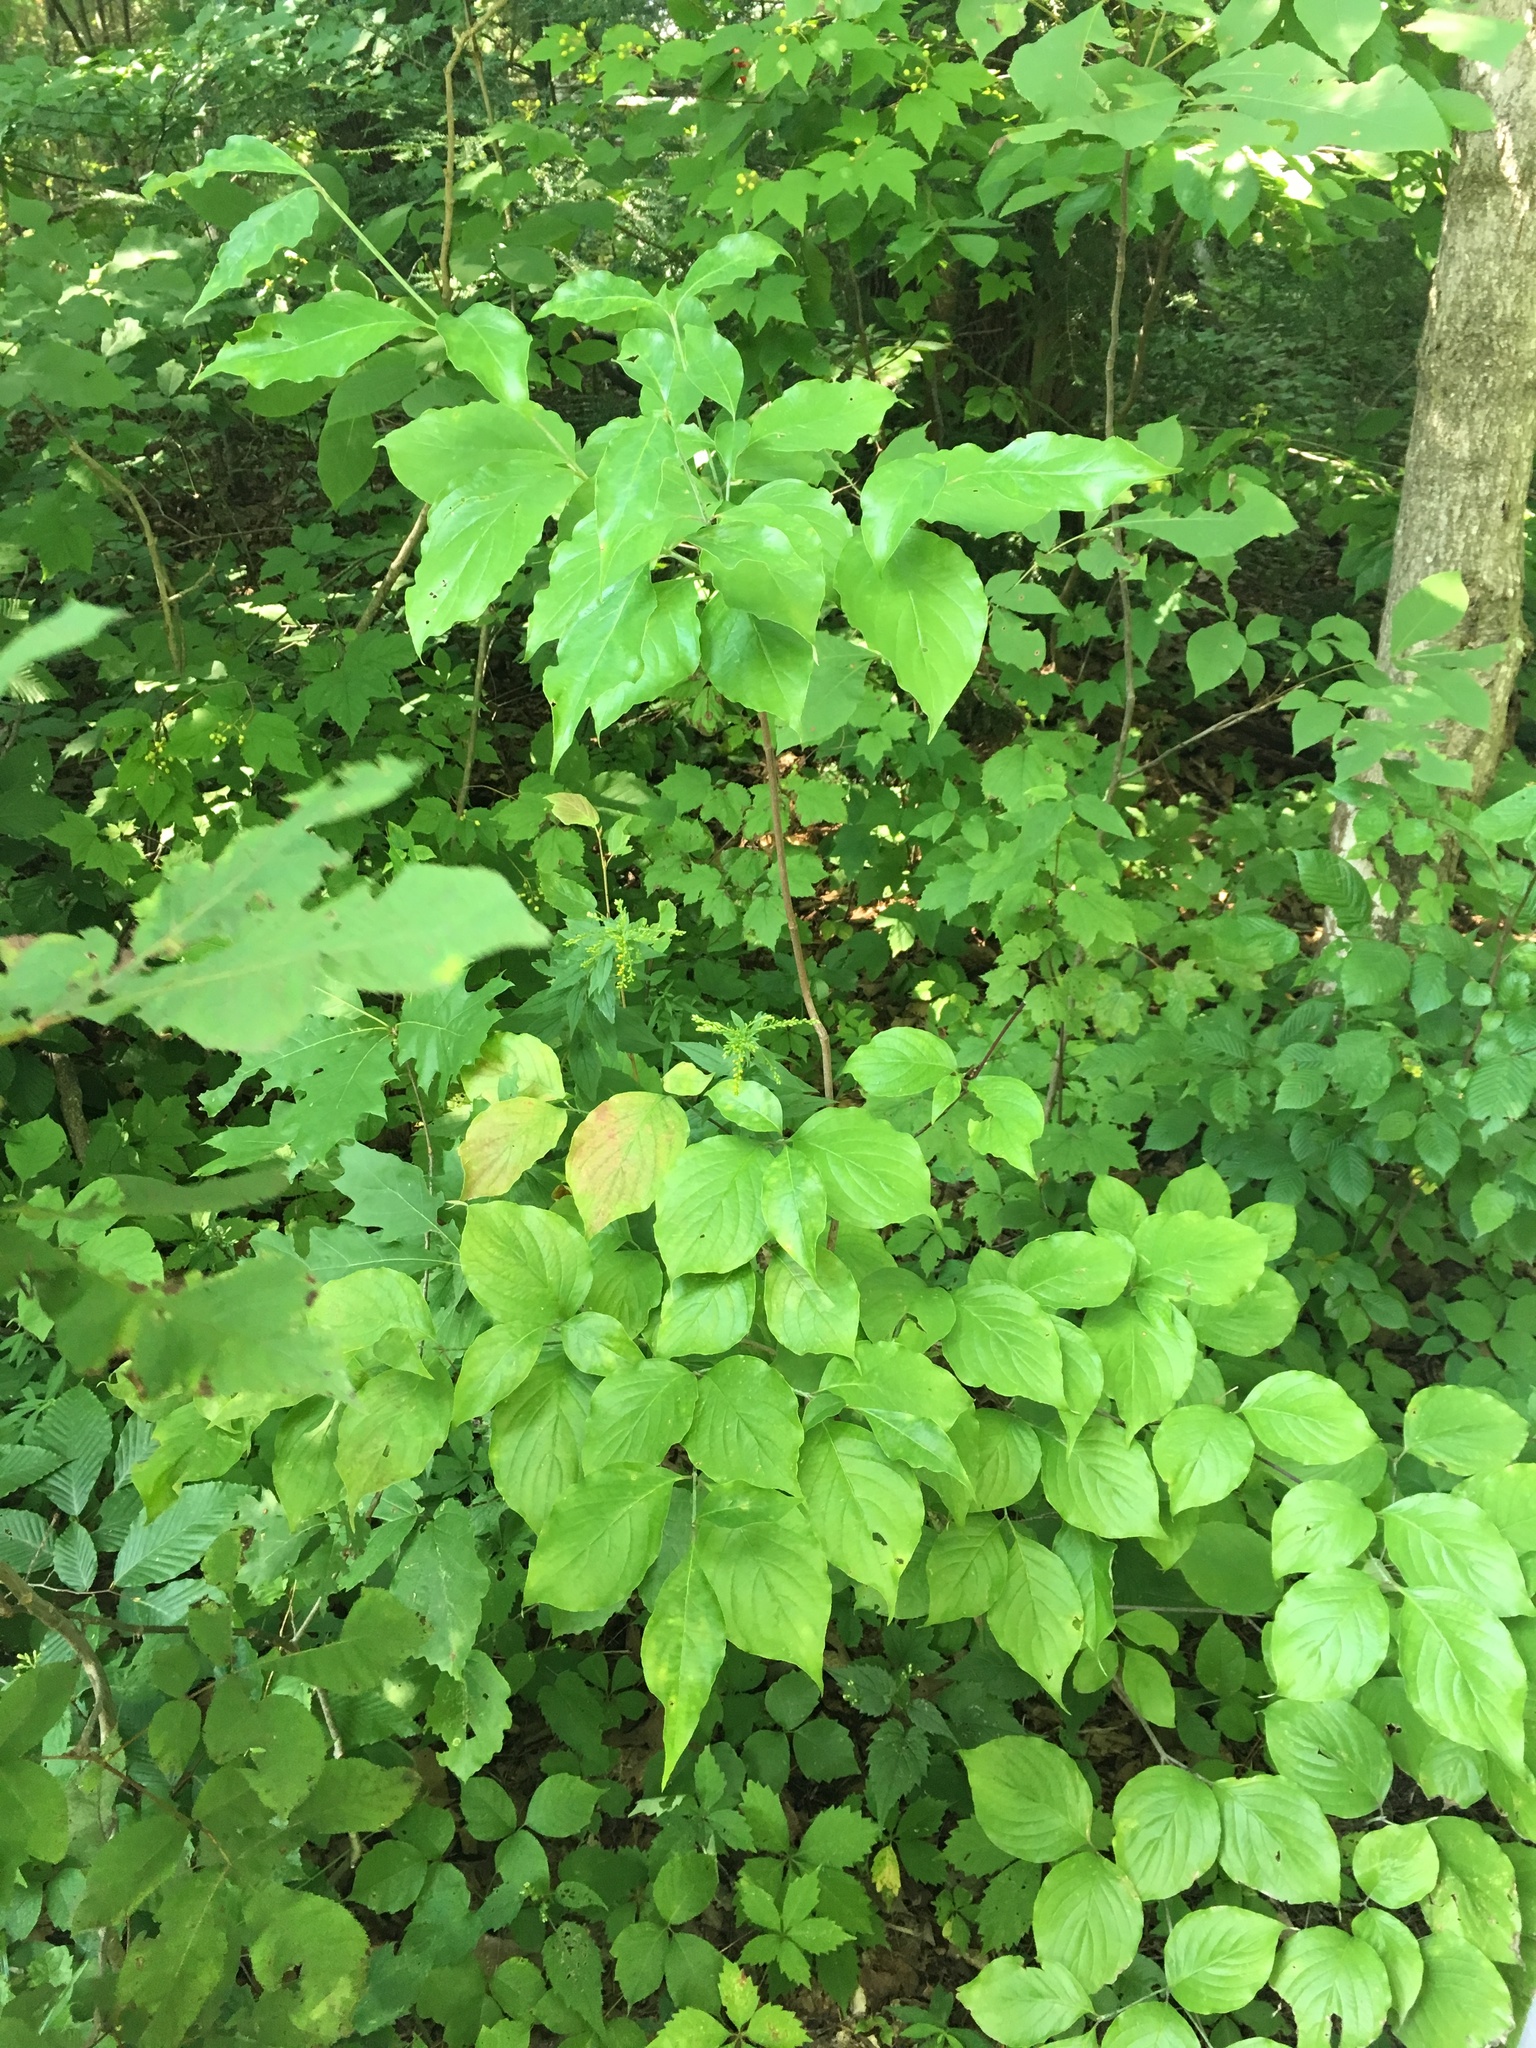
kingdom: Plantae
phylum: Tracheophyta
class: Magnoliopsida
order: Cornales
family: Cornaceae
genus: Cornus
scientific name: Cornus florida
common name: Flowering dogwood
